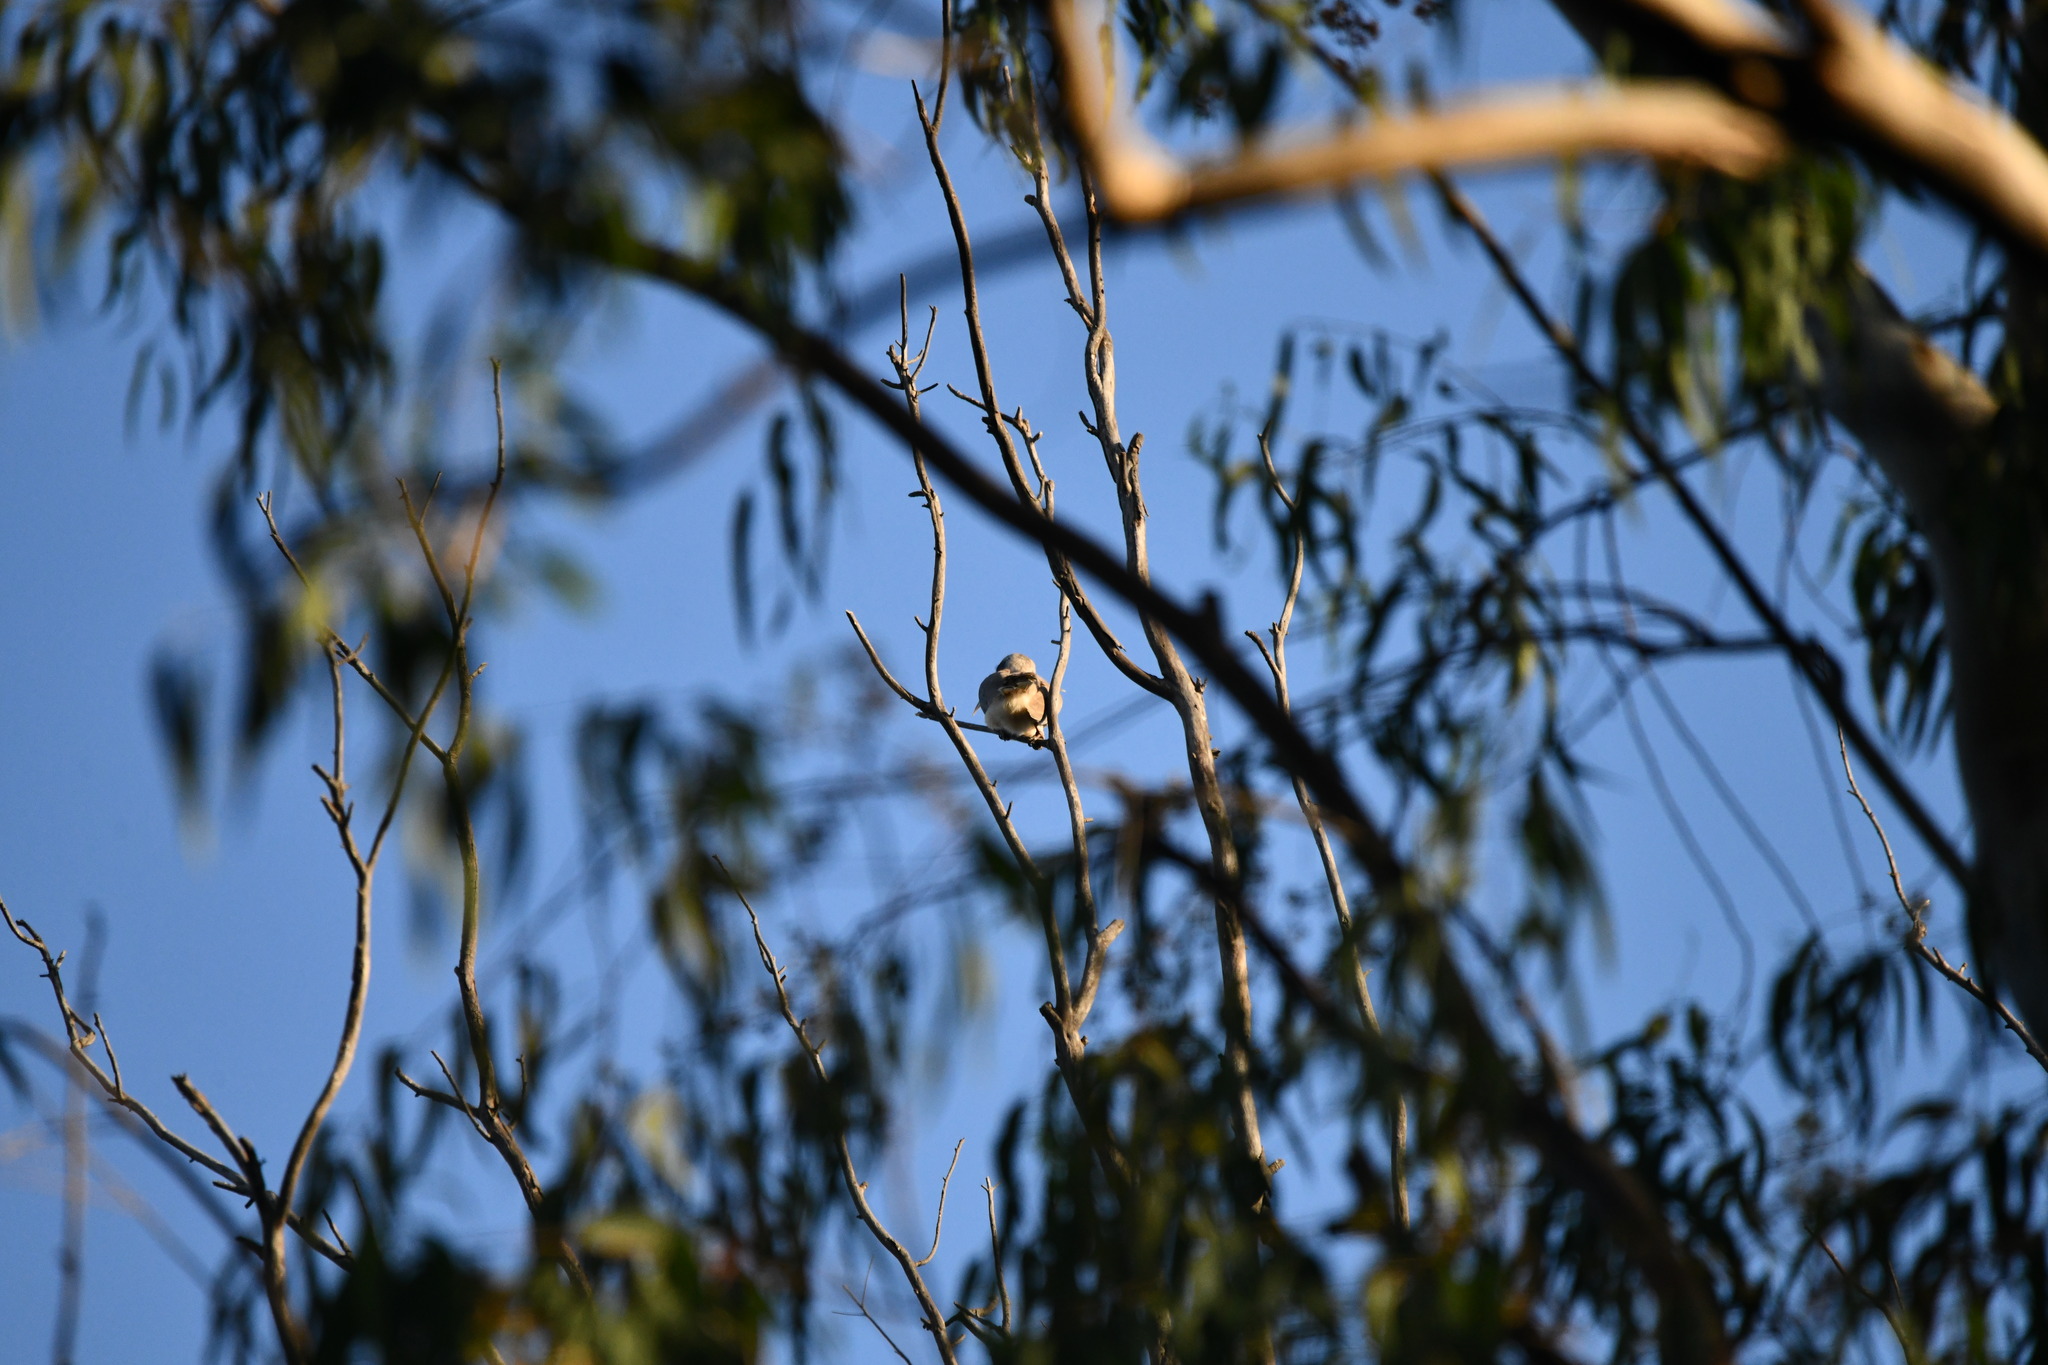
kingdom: Animalia
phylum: Chordata
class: Aves
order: Bucerotiformes
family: Bucerotidae
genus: Ocyceros
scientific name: Ocyceros birostris
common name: Indian grey hornbill
